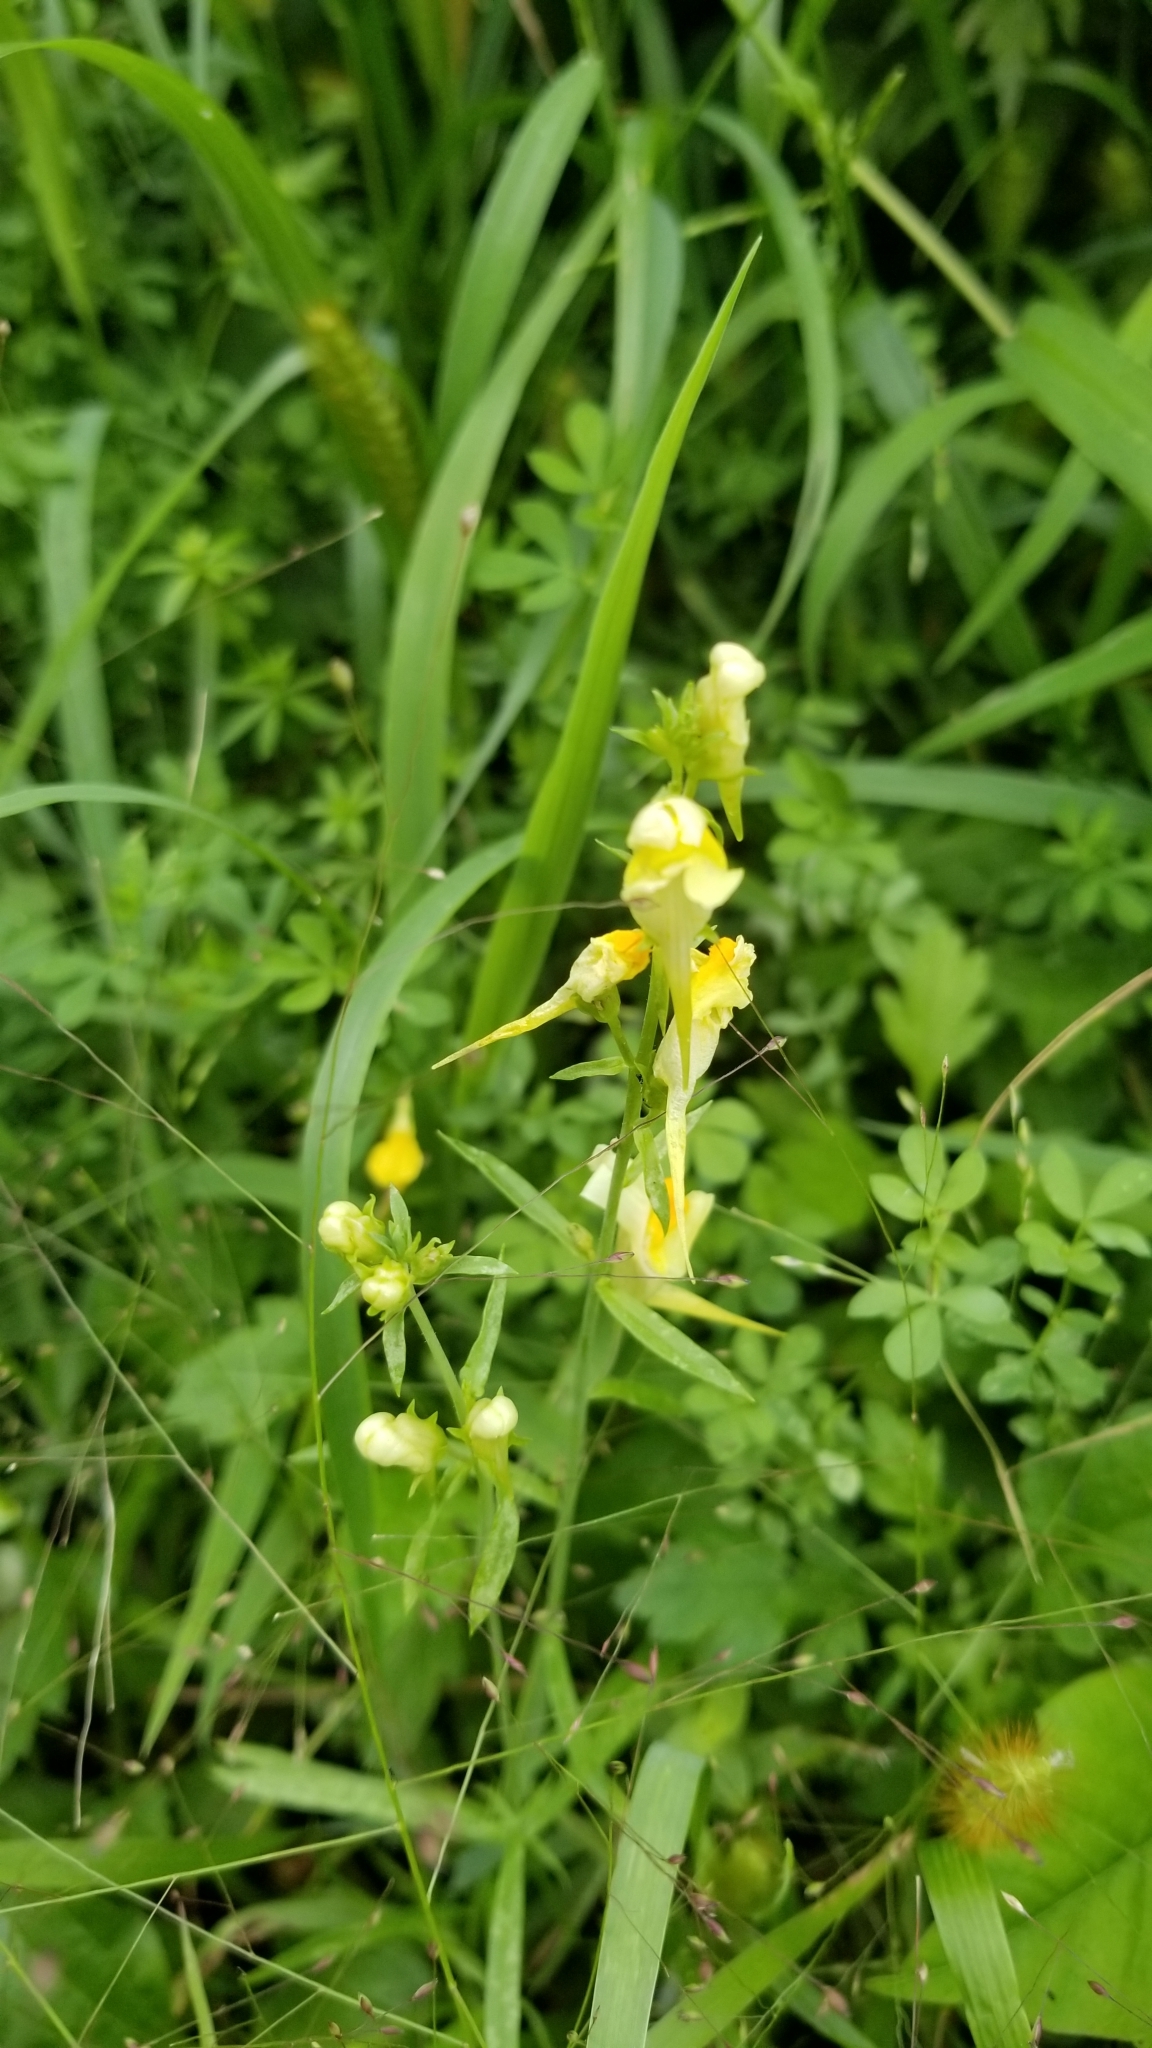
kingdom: Plantae
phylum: Tracheophyta
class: Magnoliopsida
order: Lamiales
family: Plantaginaceae
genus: Linaria
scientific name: Linaria vulgaris
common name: Butter and eggs
